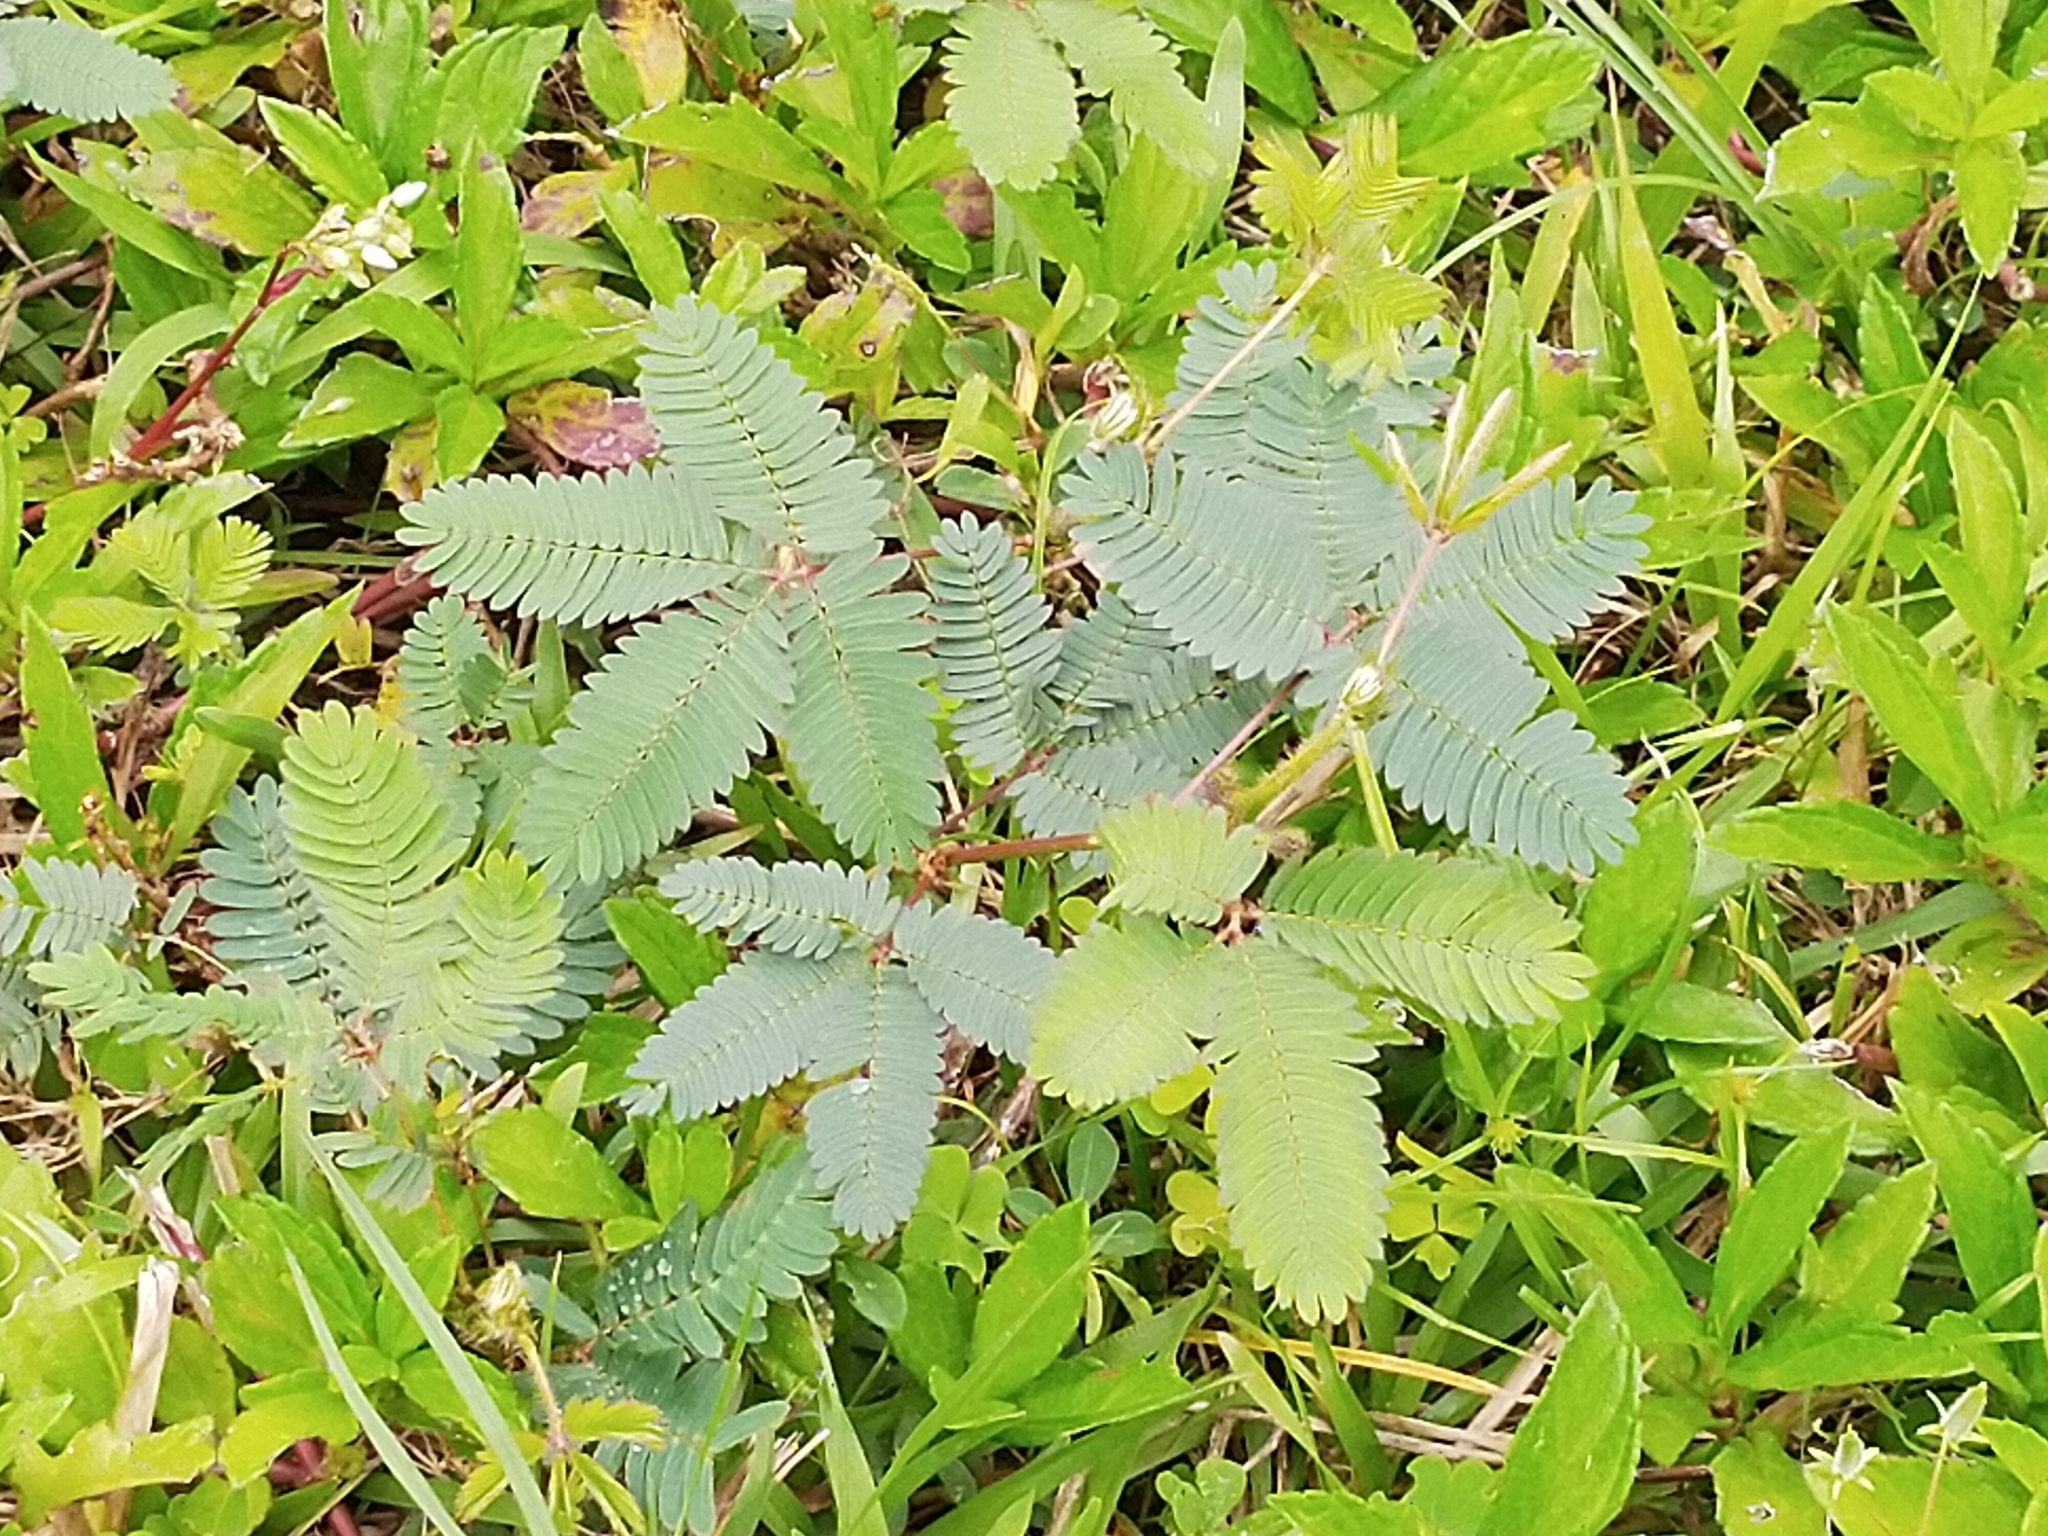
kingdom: Plantae
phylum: Tracheophyta
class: Magnoliopsida
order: Fabales
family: Fabaceae
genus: Mimosa
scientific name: Mimosa pudica
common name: Sensitive plant
